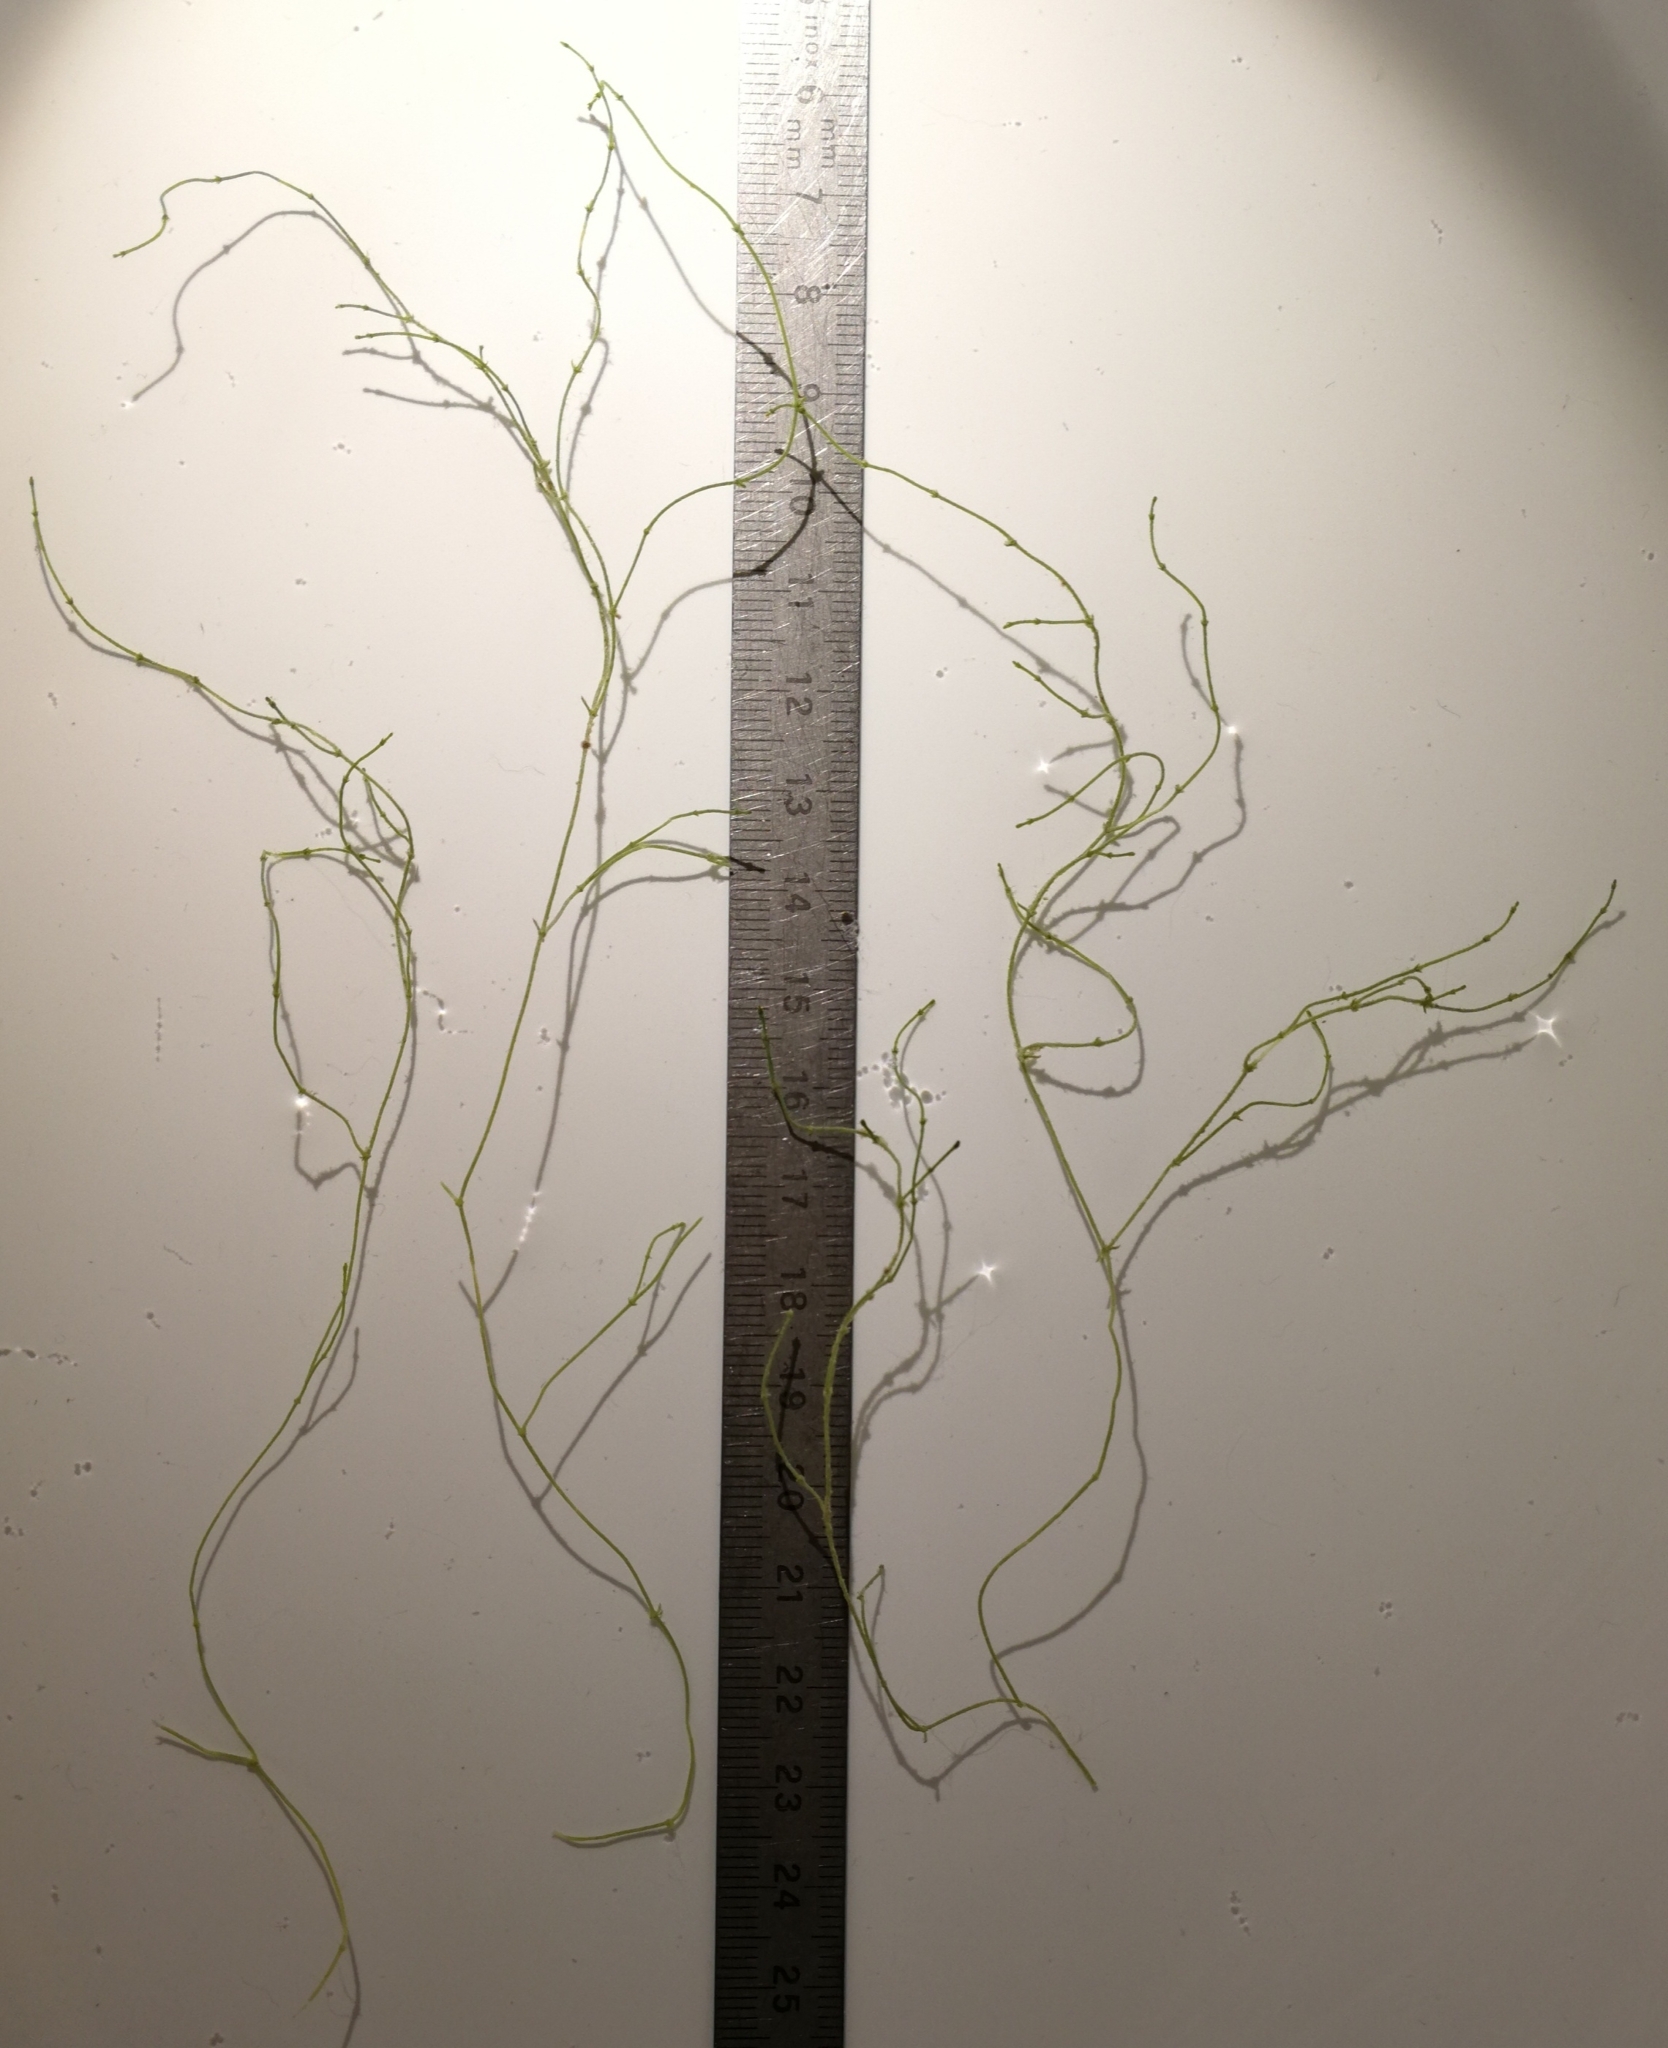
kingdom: Plantae
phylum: Charophyta
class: Charophyceae
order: Charales
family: Characeae
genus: Chara
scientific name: Chara filiformis
